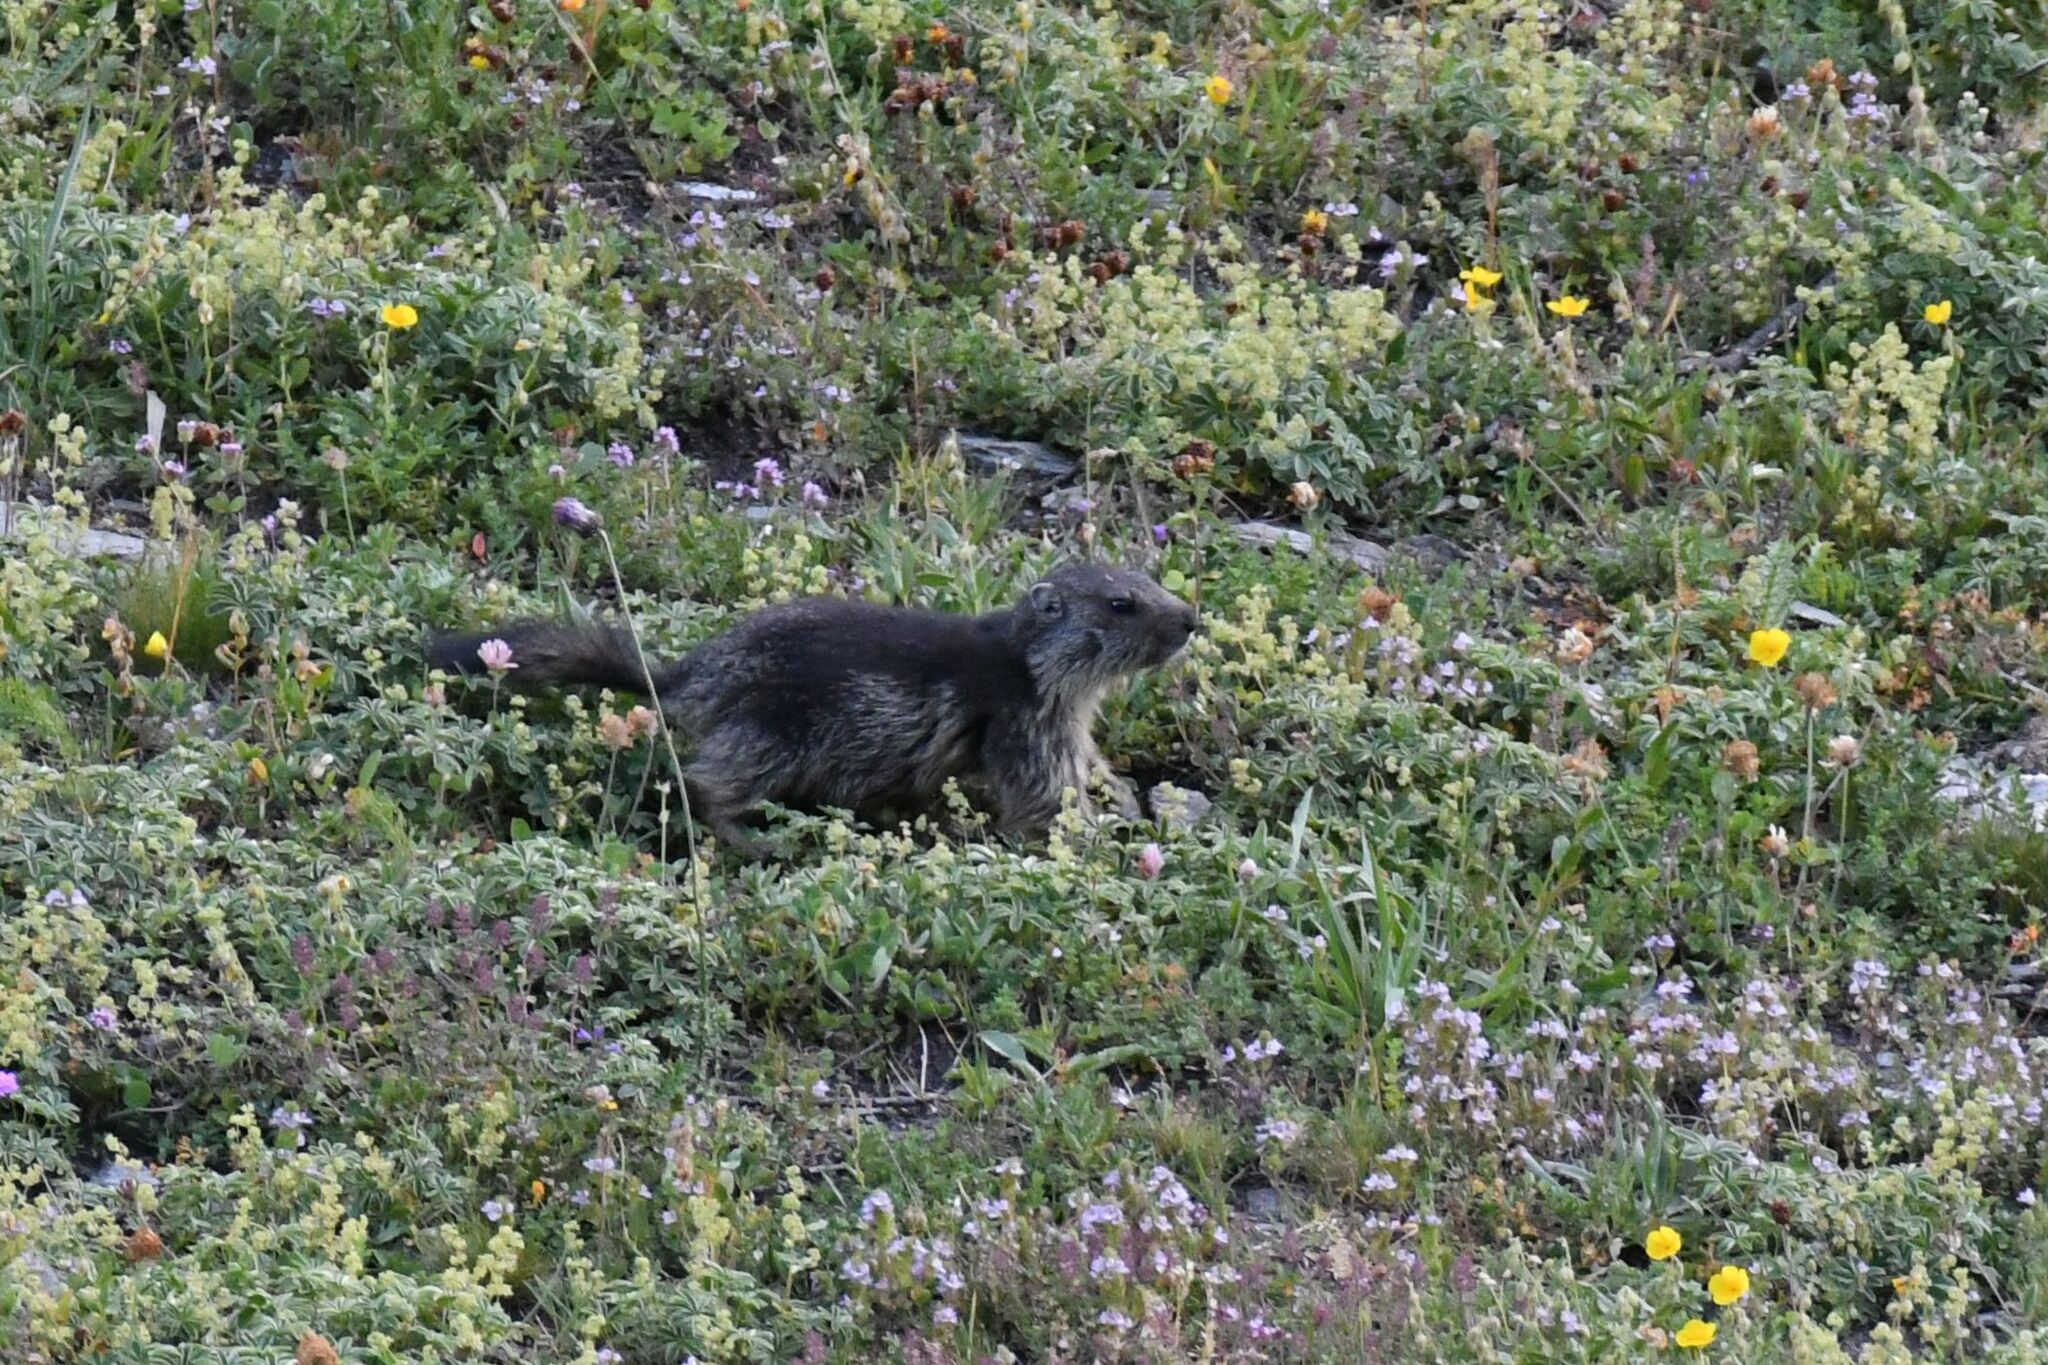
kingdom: Animalia
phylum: Chordata
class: Mammalia
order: Rodentia
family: Sciuridae
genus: Marmota
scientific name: Marmota marmota
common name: Alpine marmot
